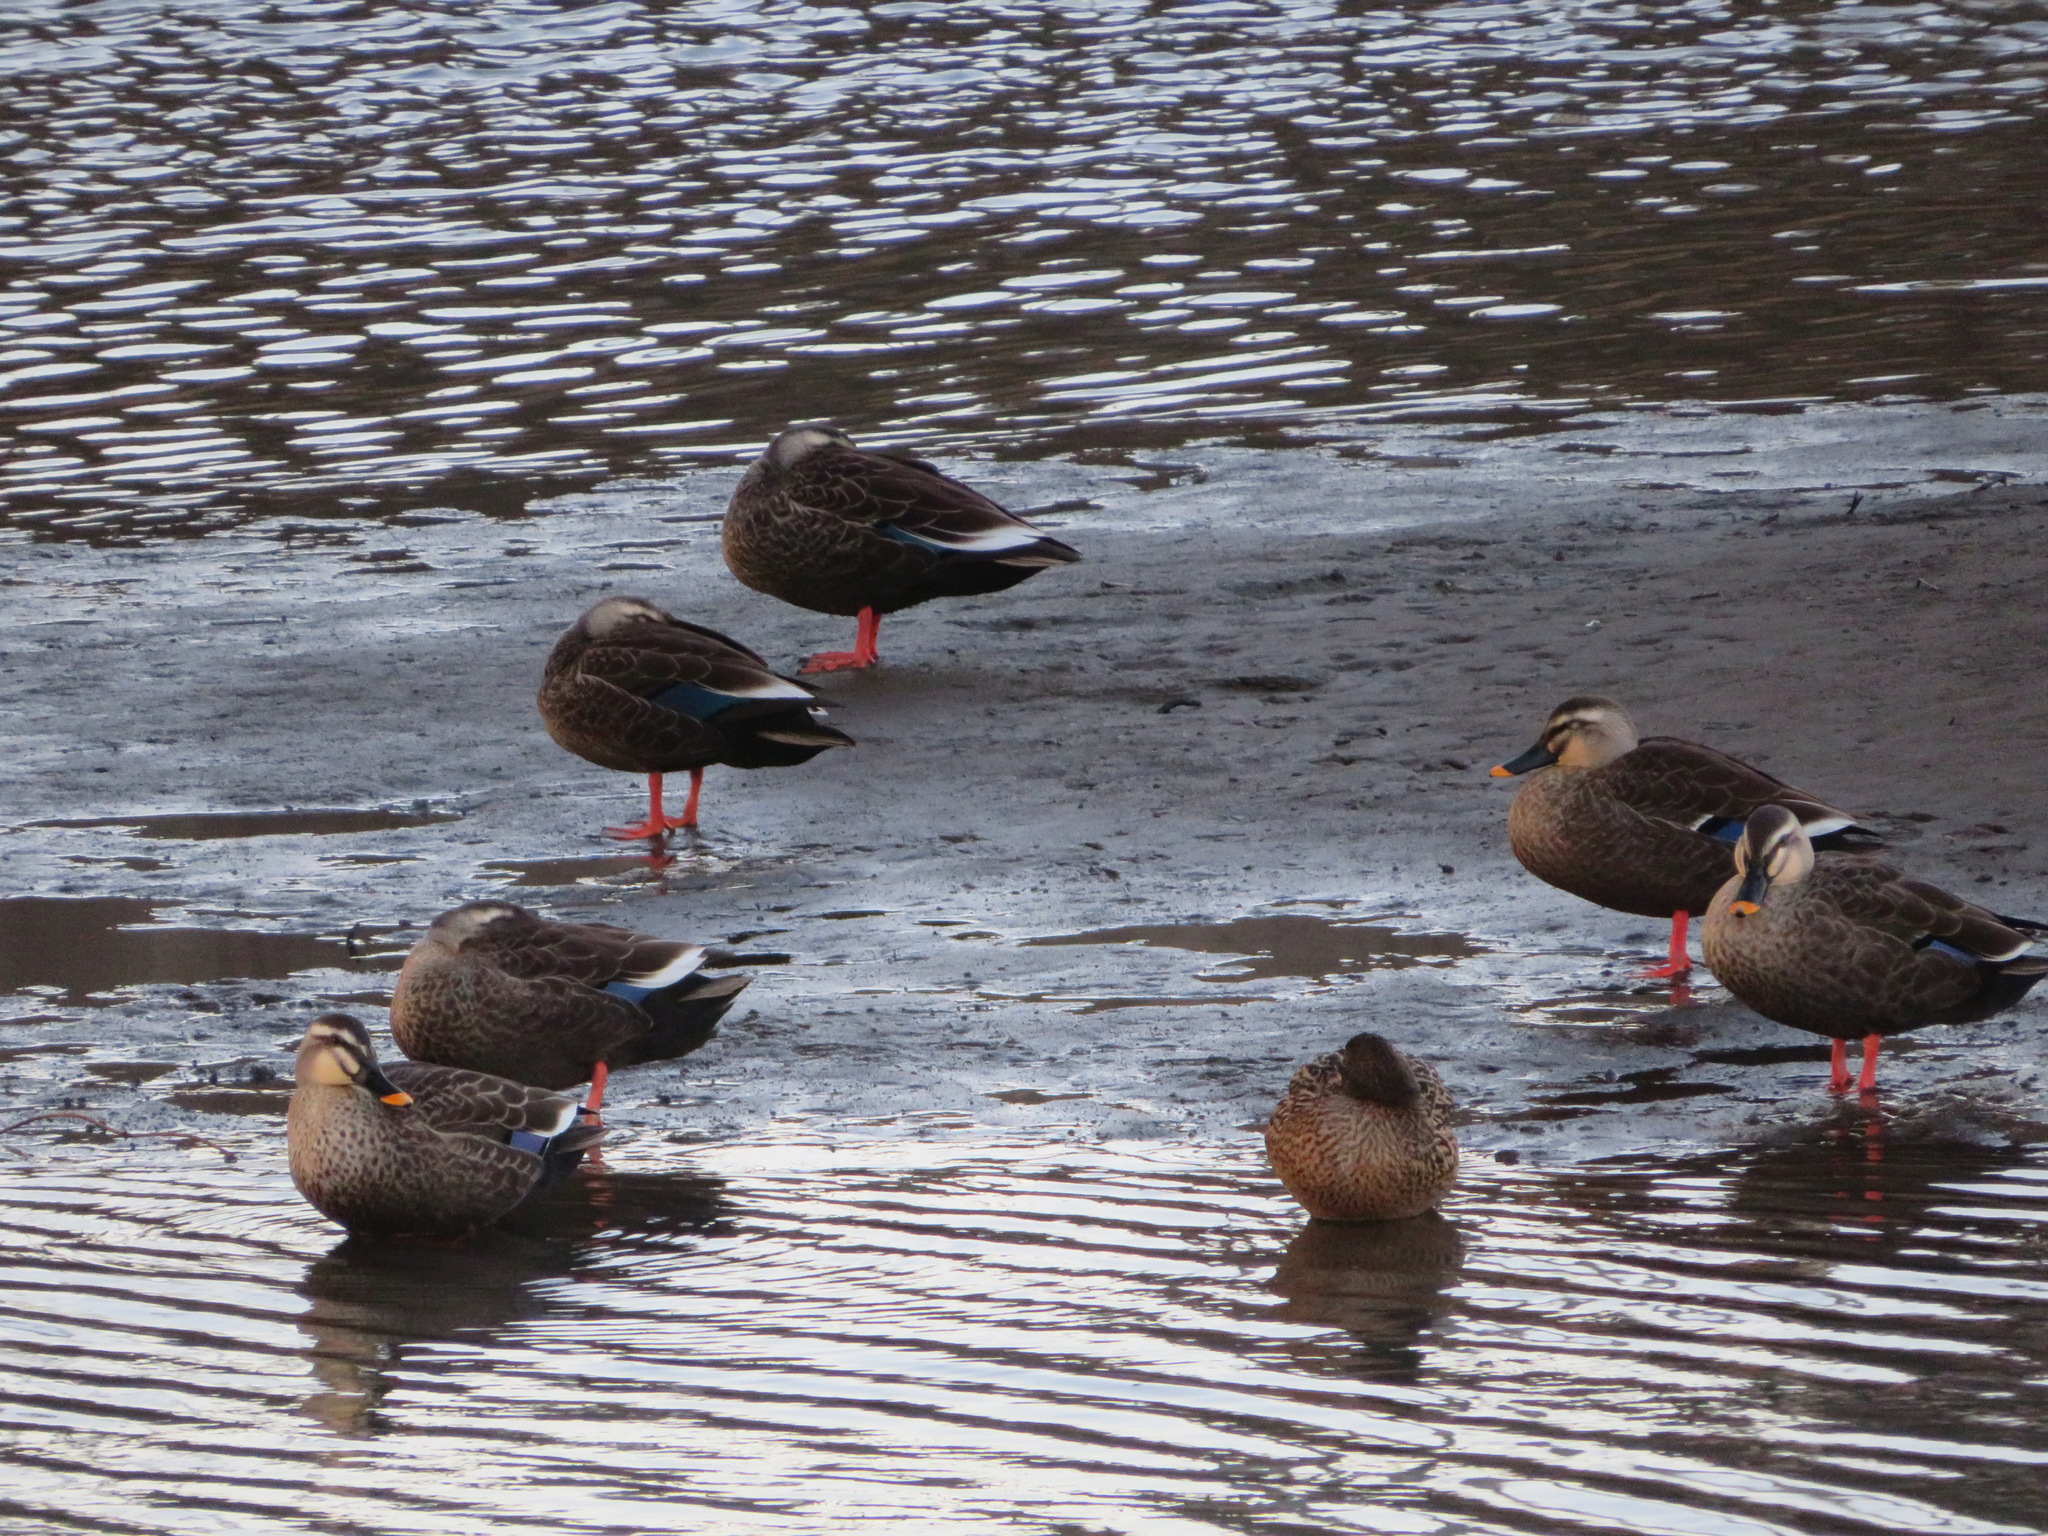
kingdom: Animalia
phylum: Chordata
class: Aves
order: Anseriformes
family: Anatidae
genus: Anas
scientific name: Anas zonorhyncha
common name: Eastern spot-billed duck
